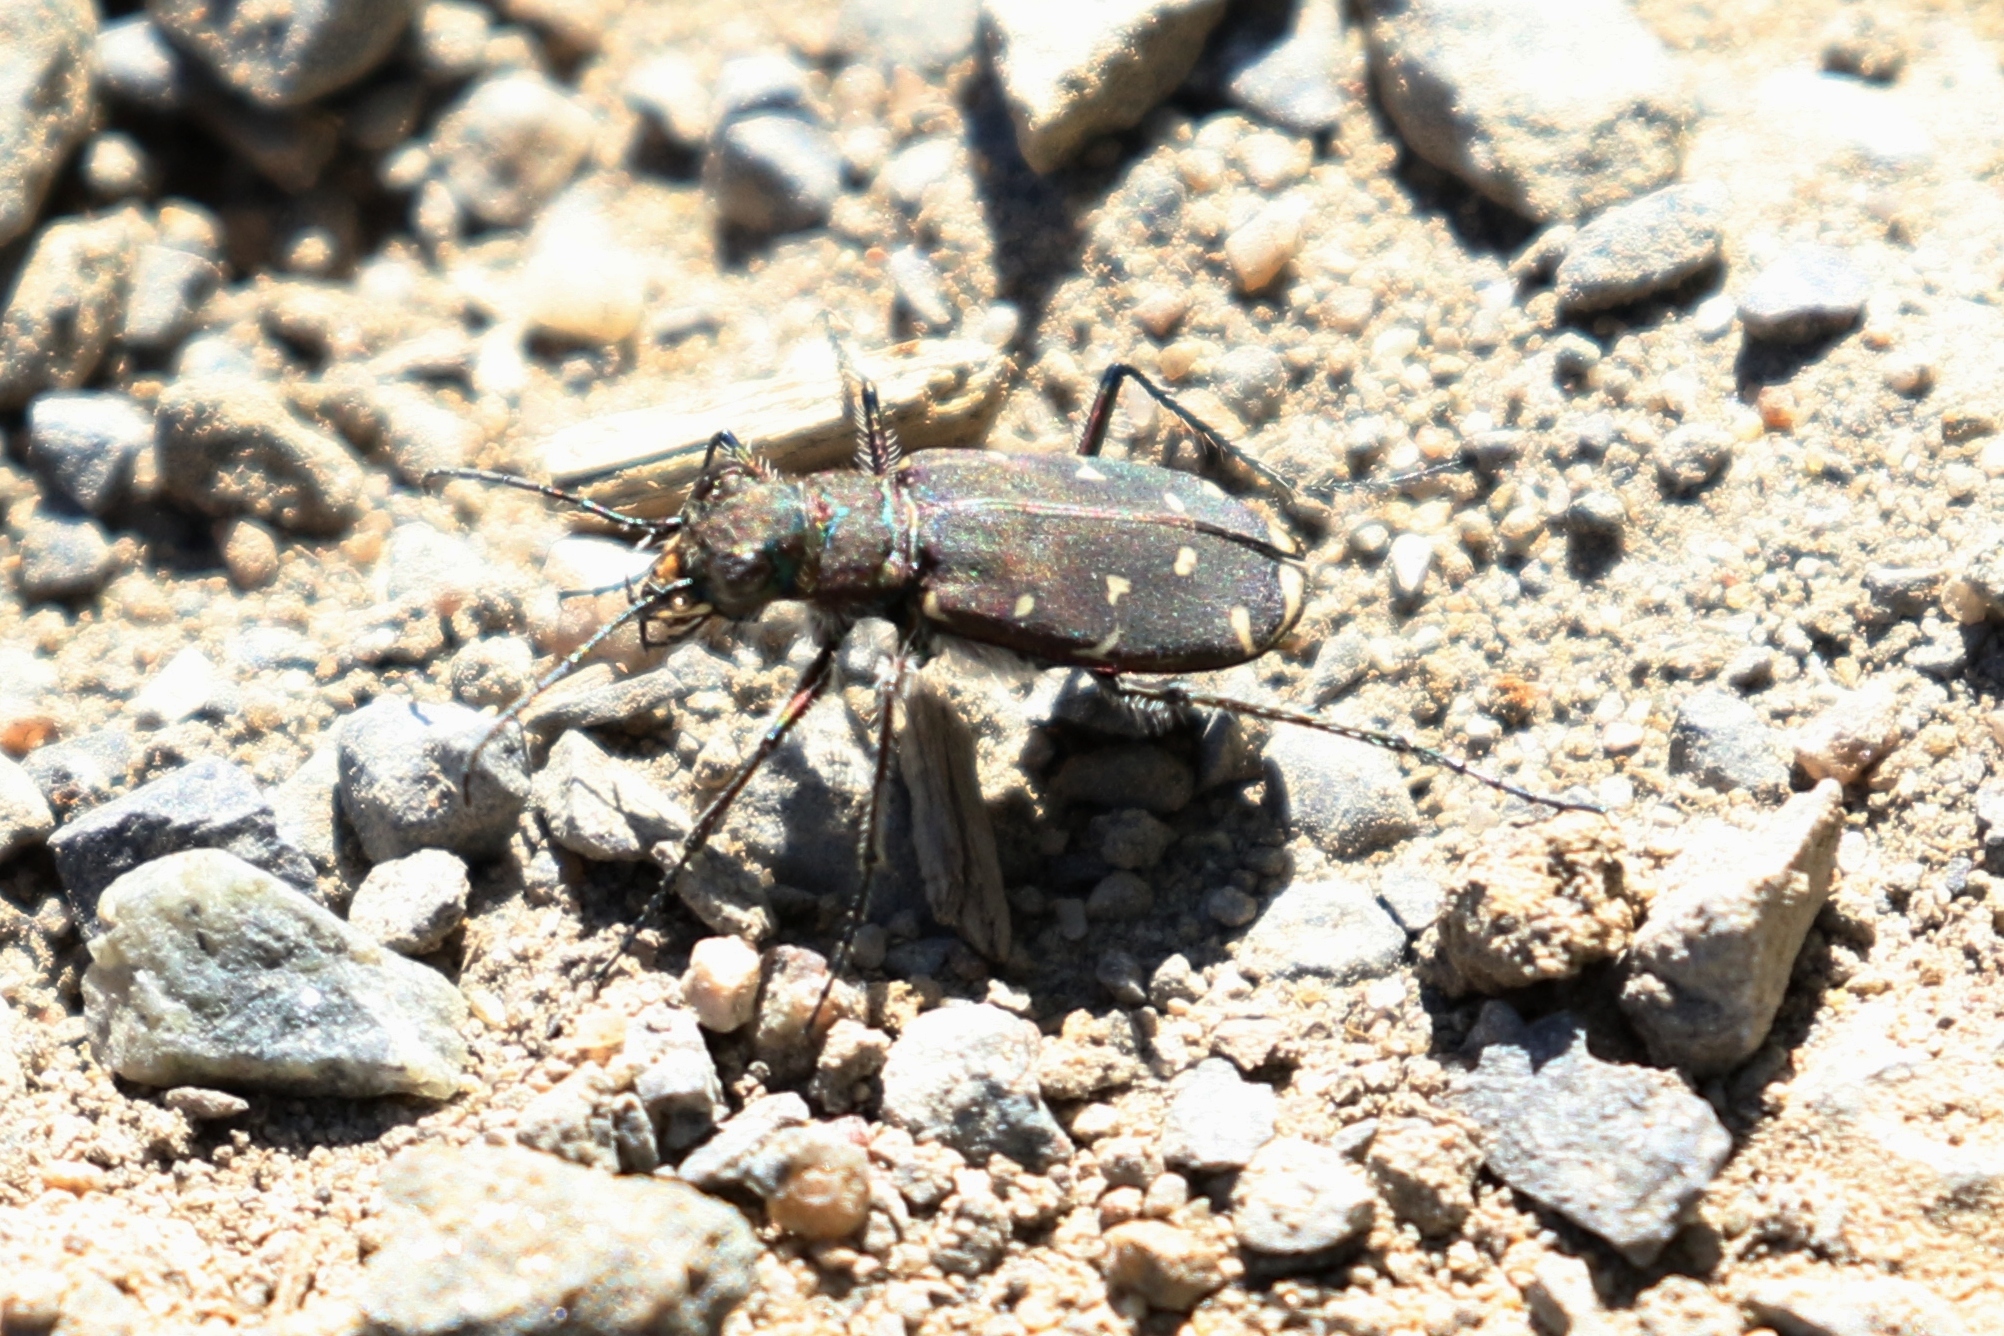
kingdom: Animalia
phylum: Arthropoda
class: Insecta
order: Coleoptera
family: Carabidae
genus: Cicindela
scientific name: Cicindela duodecimguttata
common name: Twelve-spotted tiger beetle
